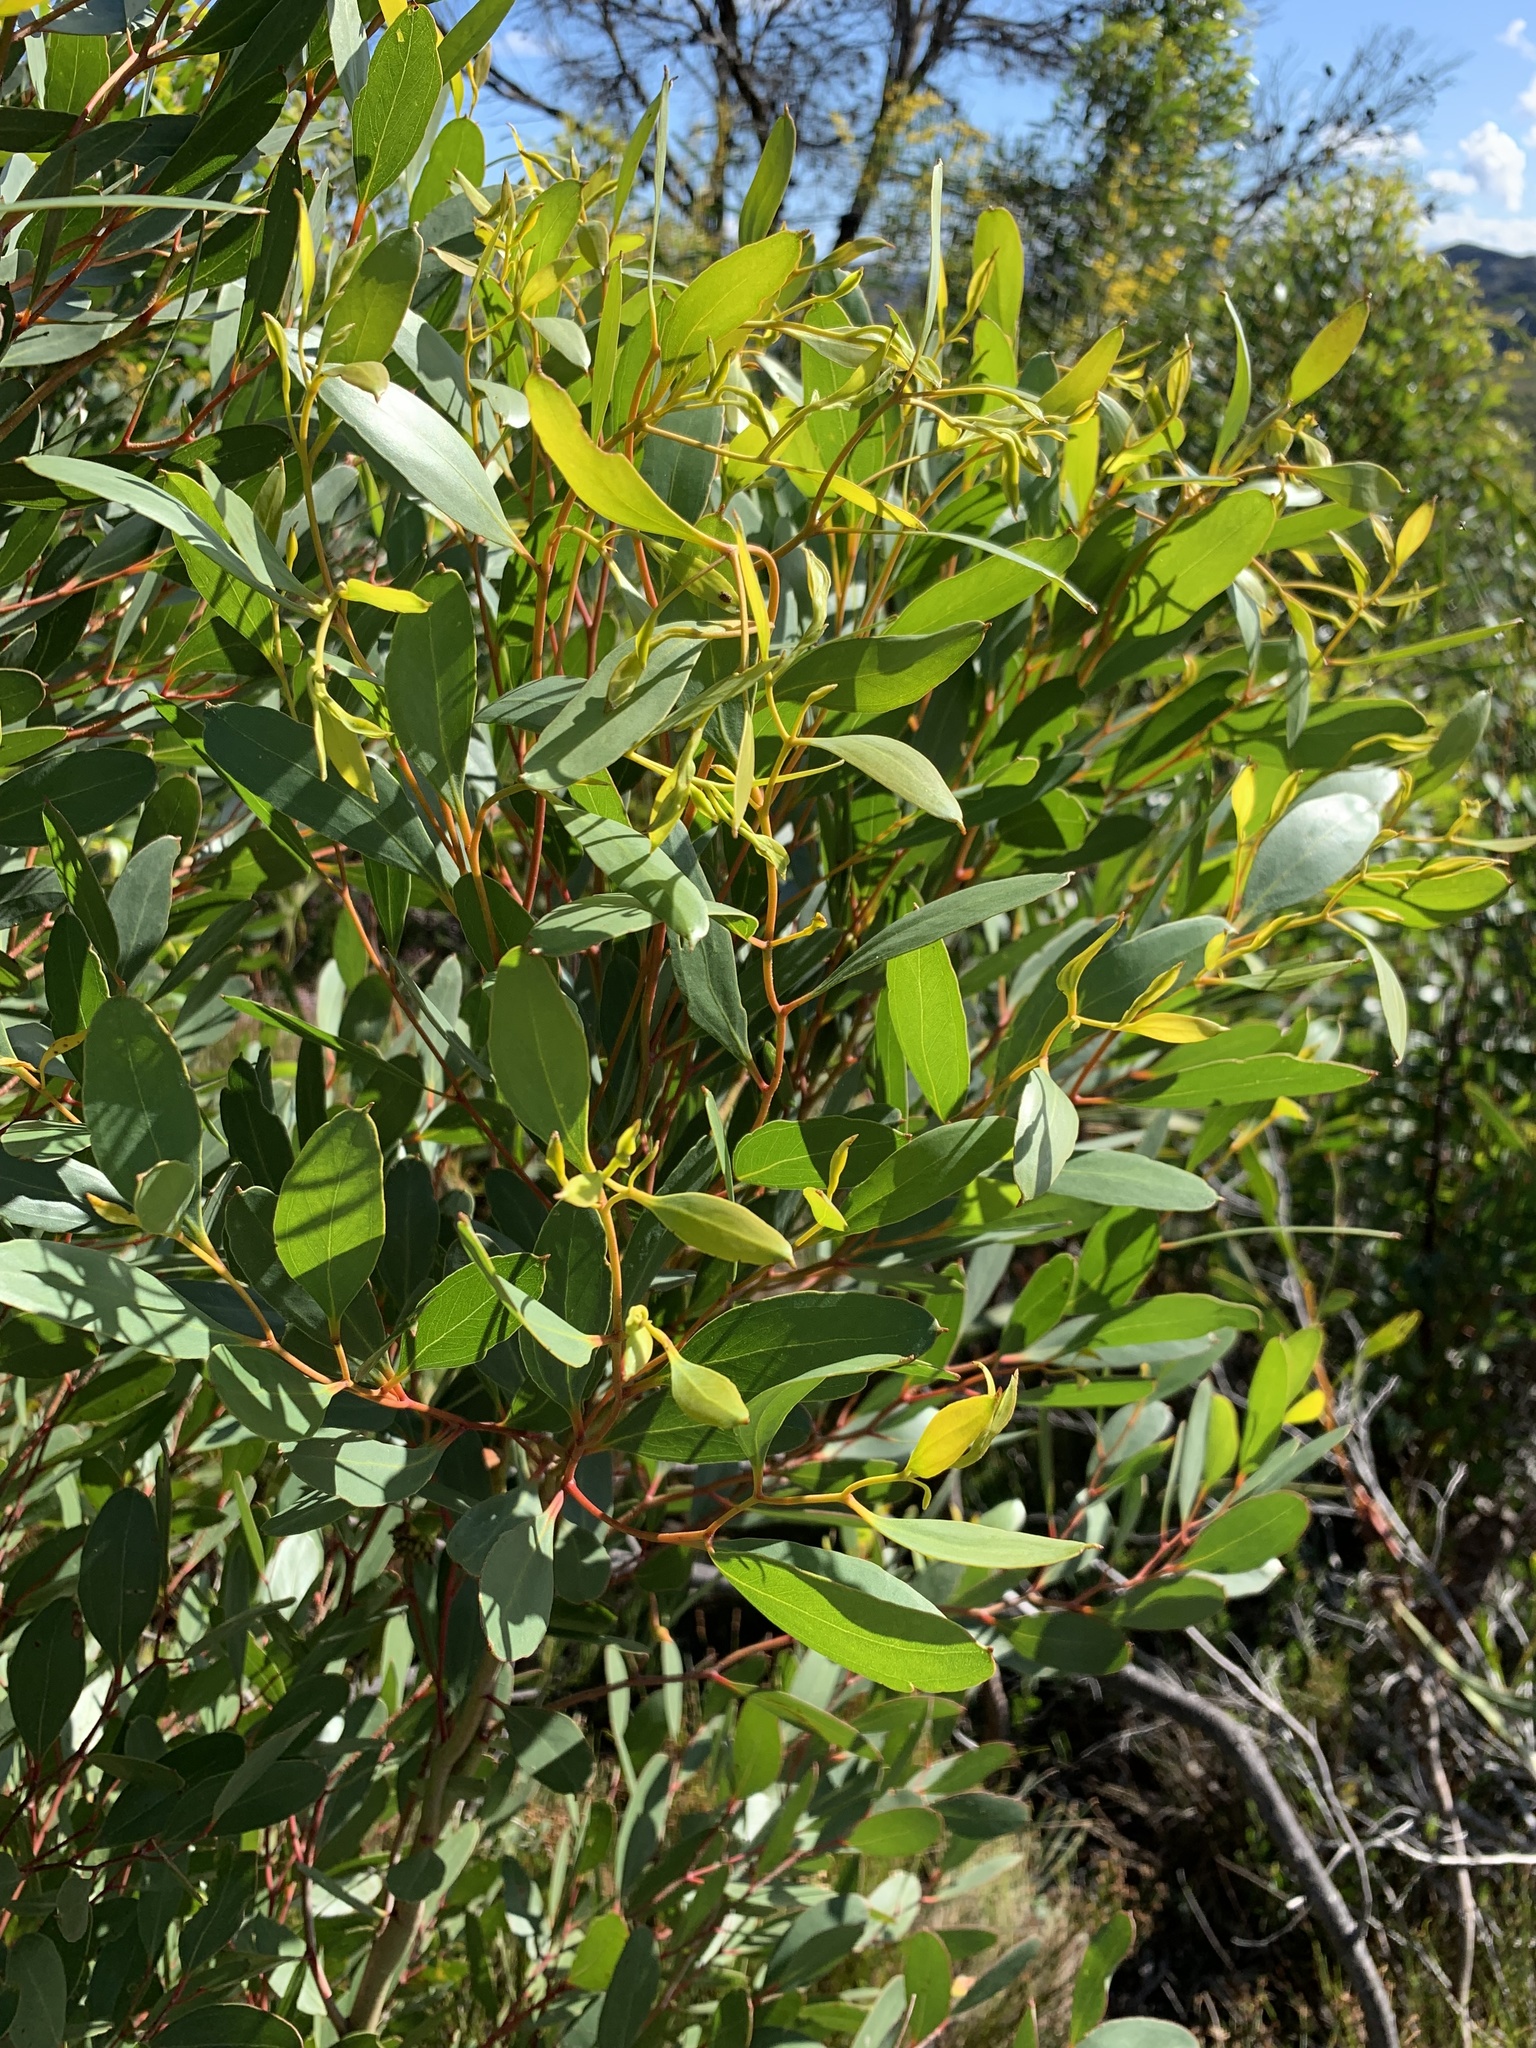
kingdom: Plantae
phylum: Tracheophyta
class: Magnoliopsida
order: Myrtales
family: Myrtaceae
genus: Eucalyptus
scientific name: Eucalyptus conferruminata
